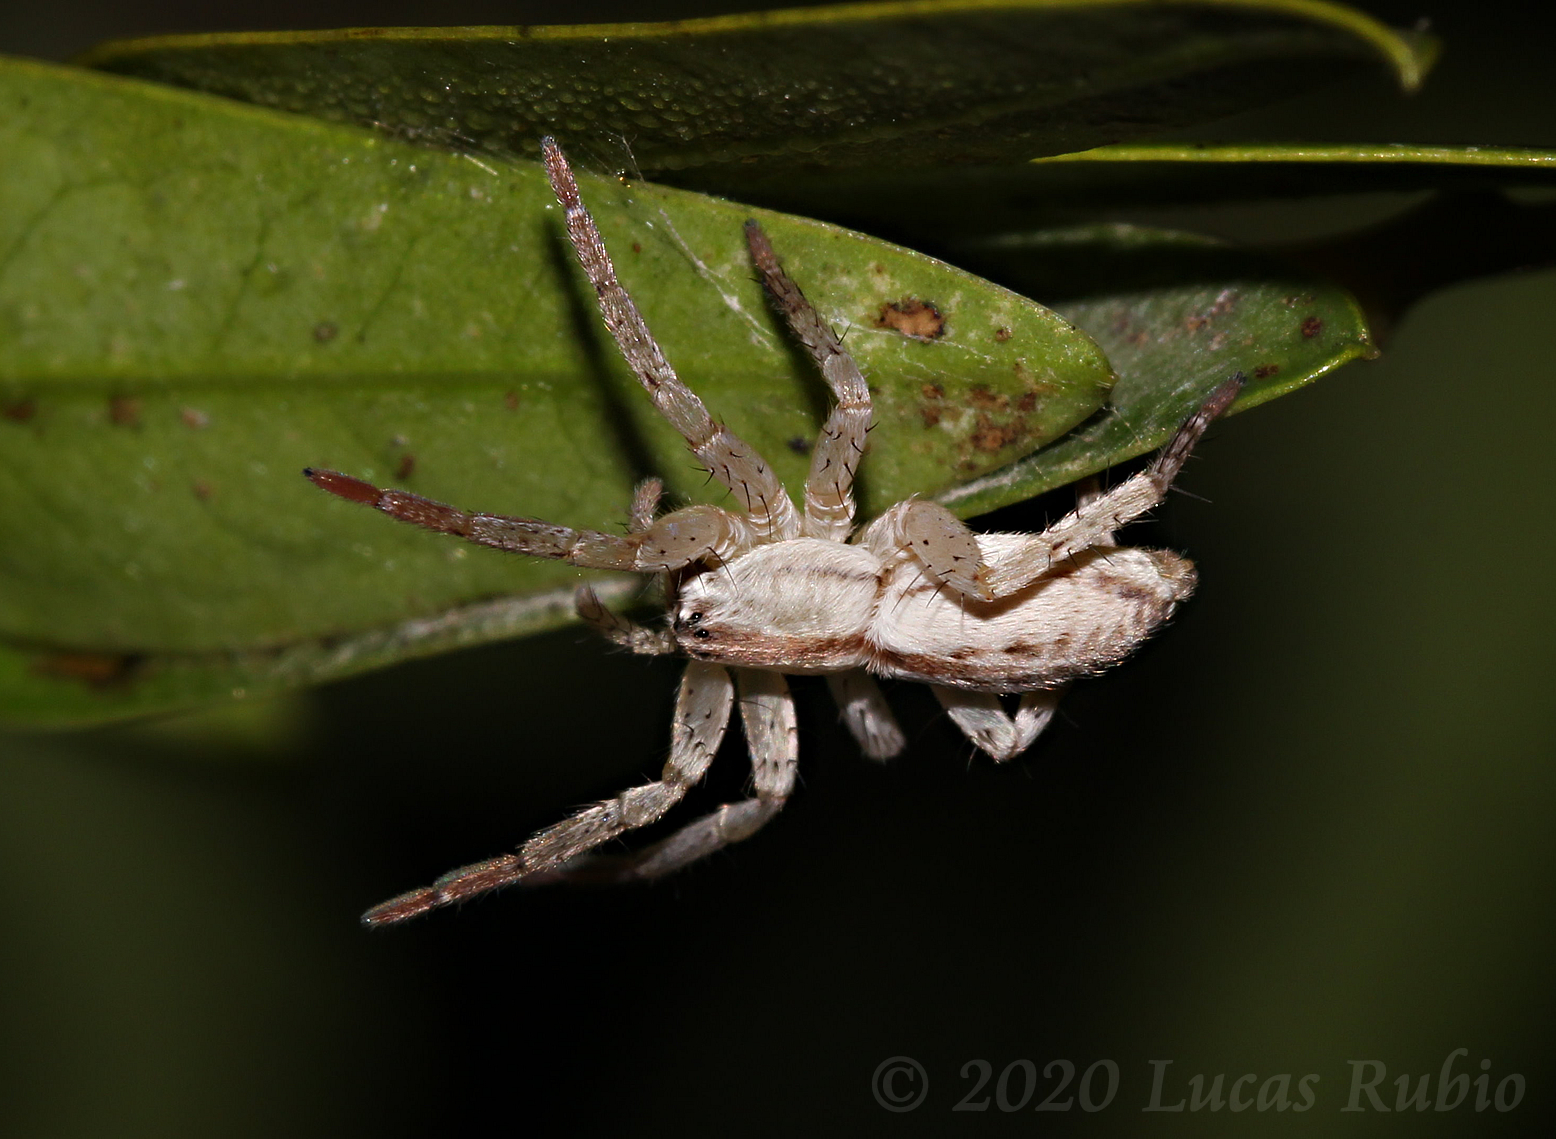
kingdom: Animalia
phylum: Arthropoda
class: Arachnida
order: Araneae
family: Anyphaenidae
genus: Arachosia
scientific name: Arachosia praesignis
